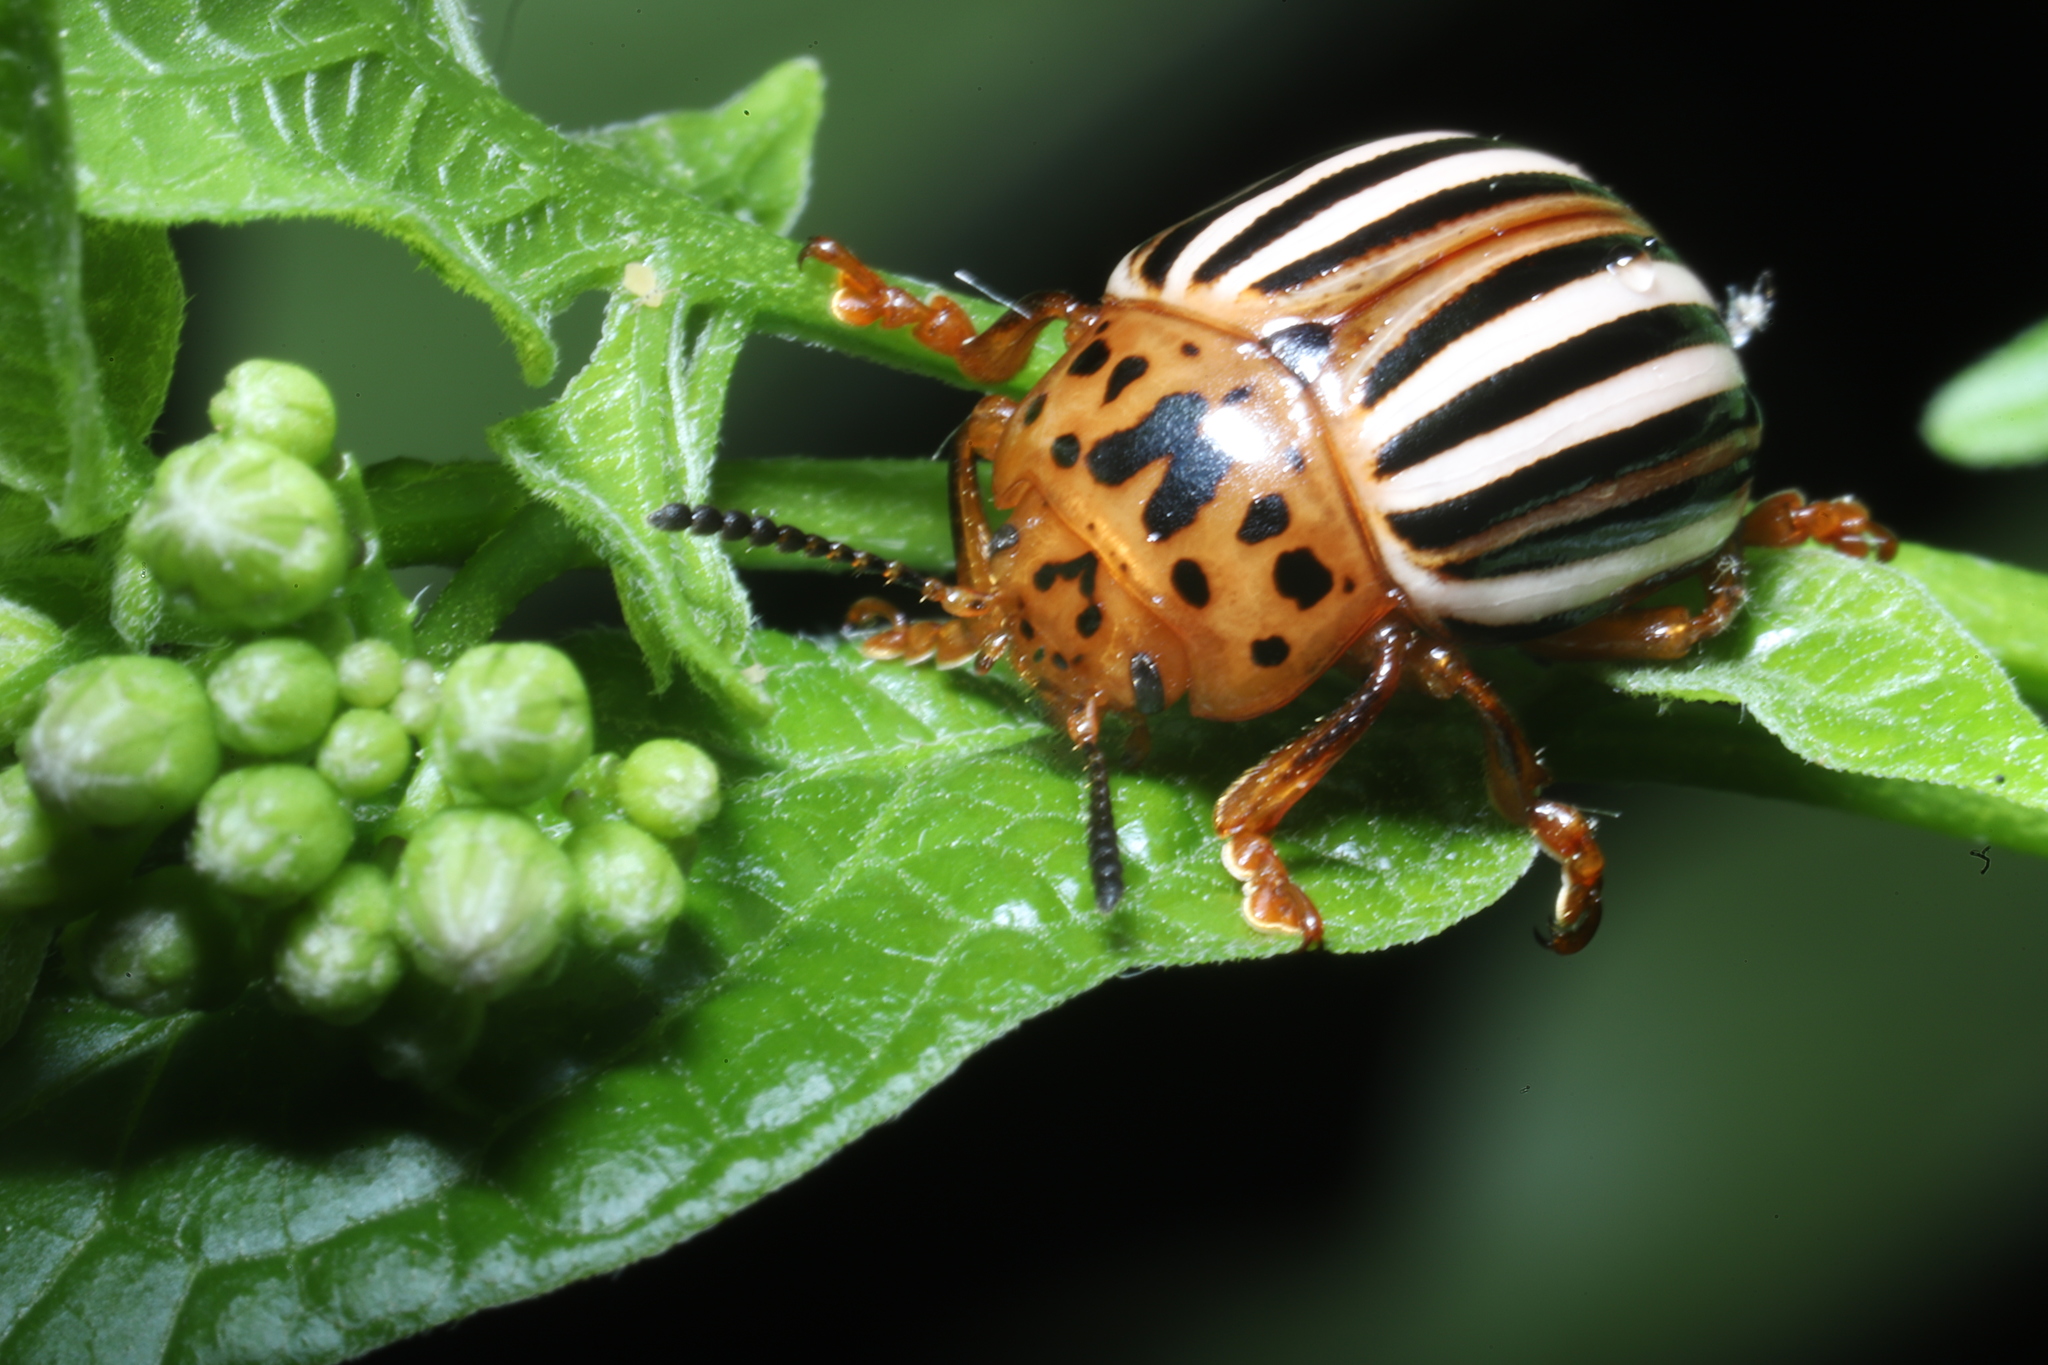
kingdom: Animalia
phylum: Arthropoda
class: Insecta
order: Coleoptera
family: Chrysomelidae
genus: Leptinotarsa
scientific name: Leptinotarsa juncta
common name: False potato beetle
